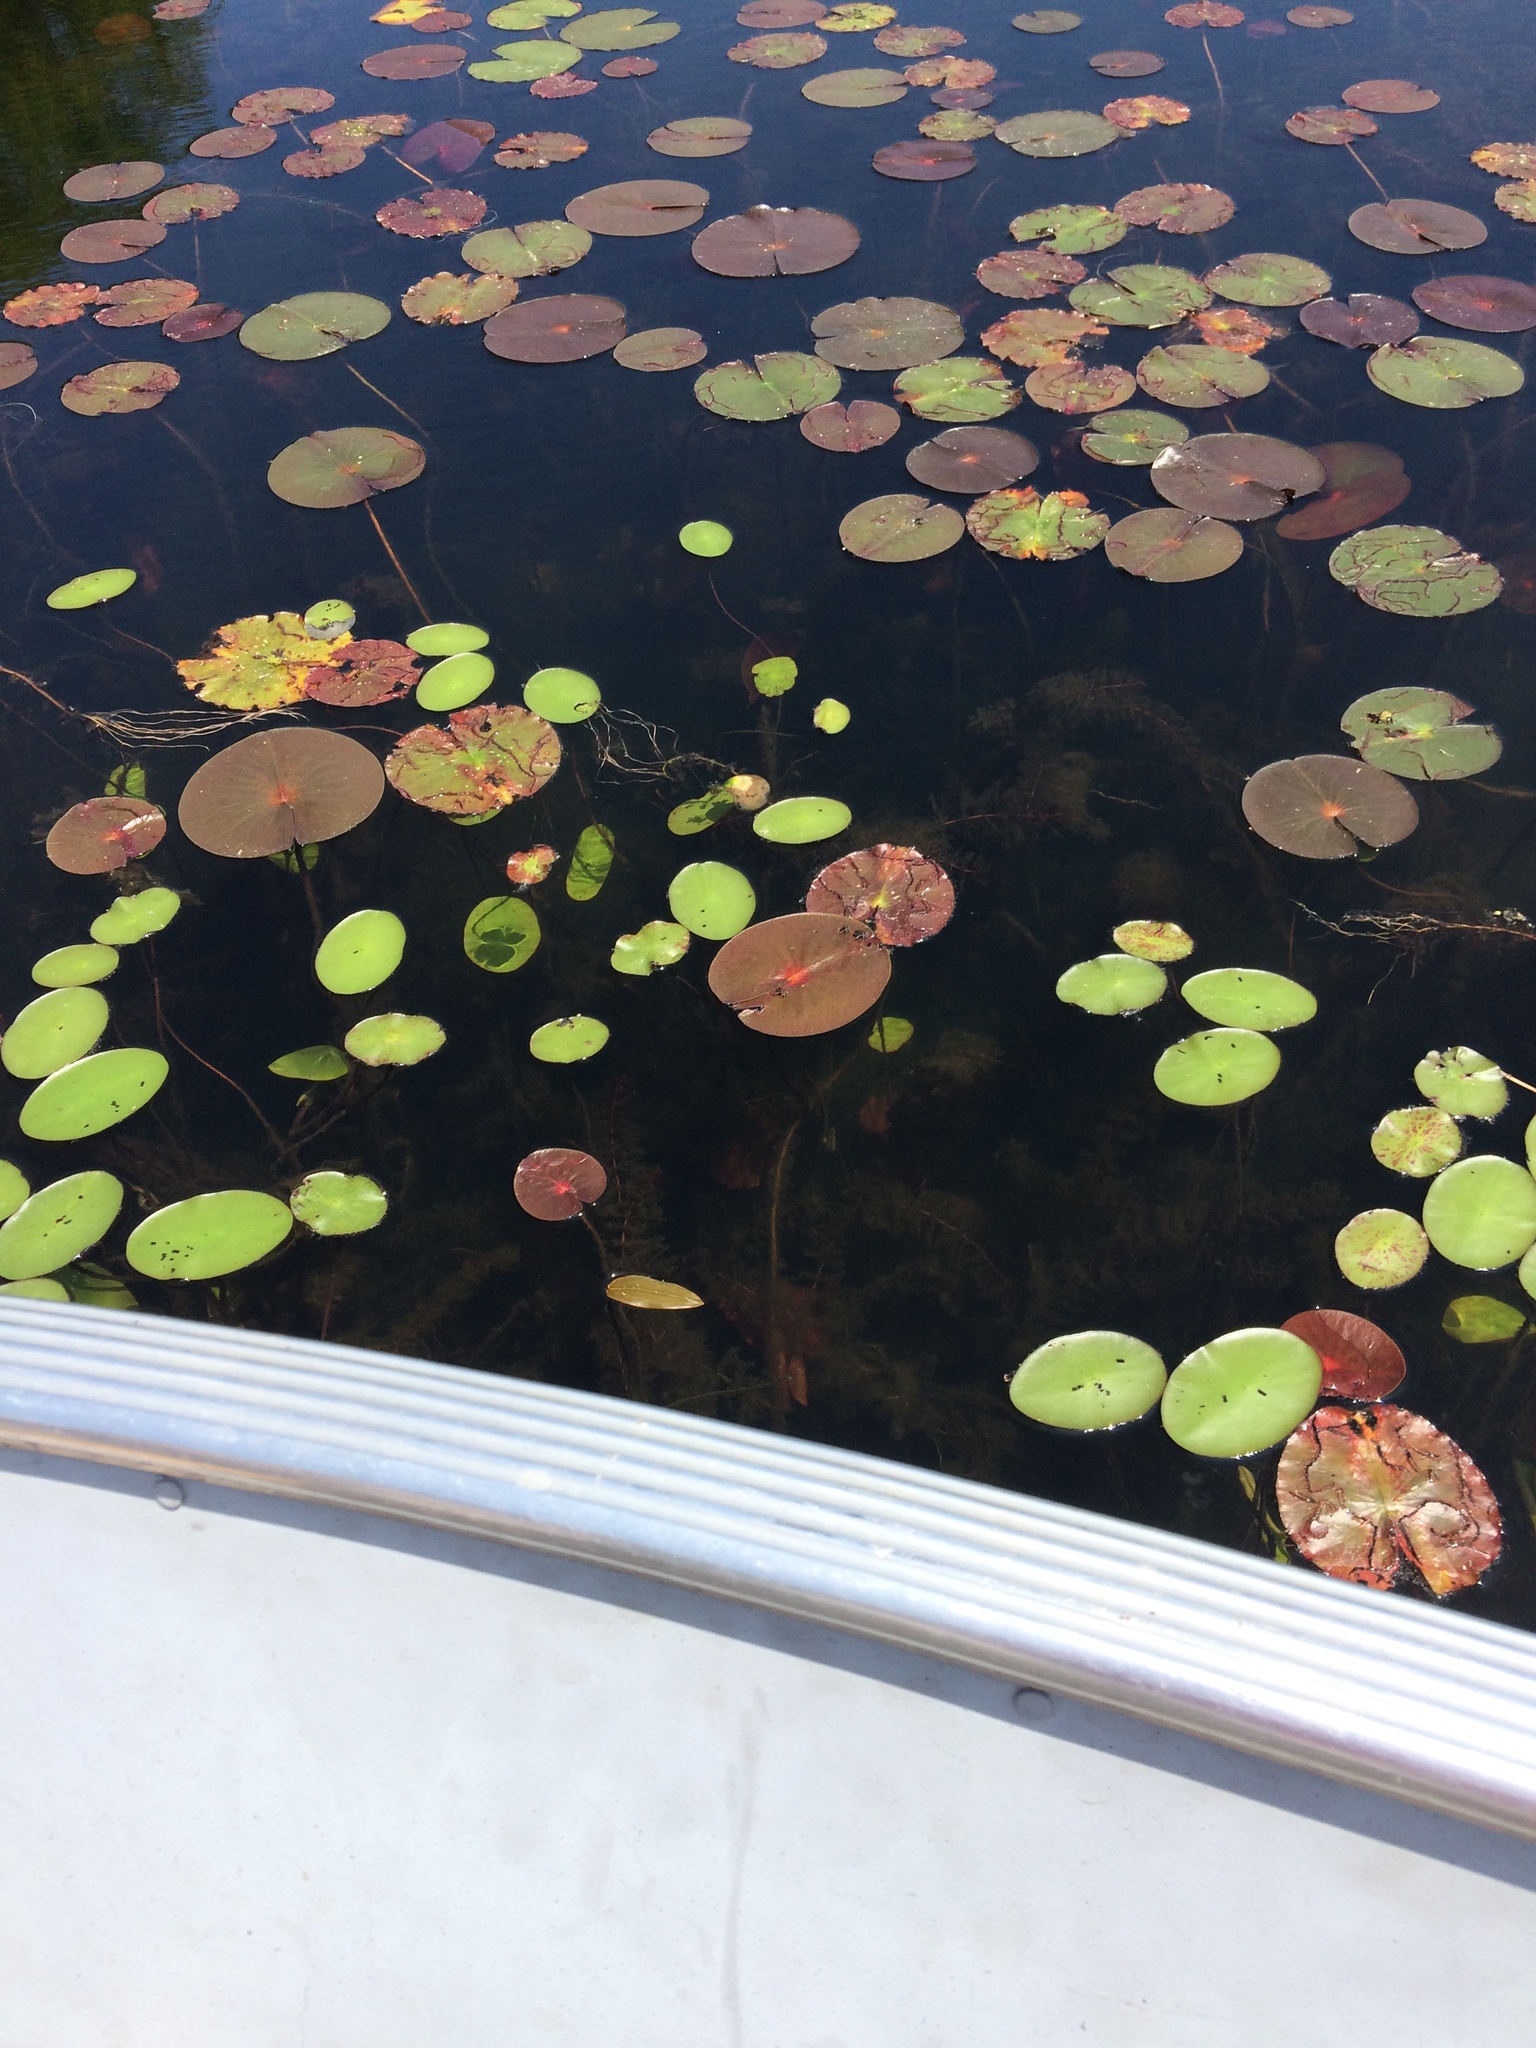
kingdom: Plantae
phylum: Tracheophyta
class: Magnoliopsida
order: Nymphaeales
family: Cabombaceae
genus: Brasenia
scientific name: Brasenia schreberi
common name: Water-shield
